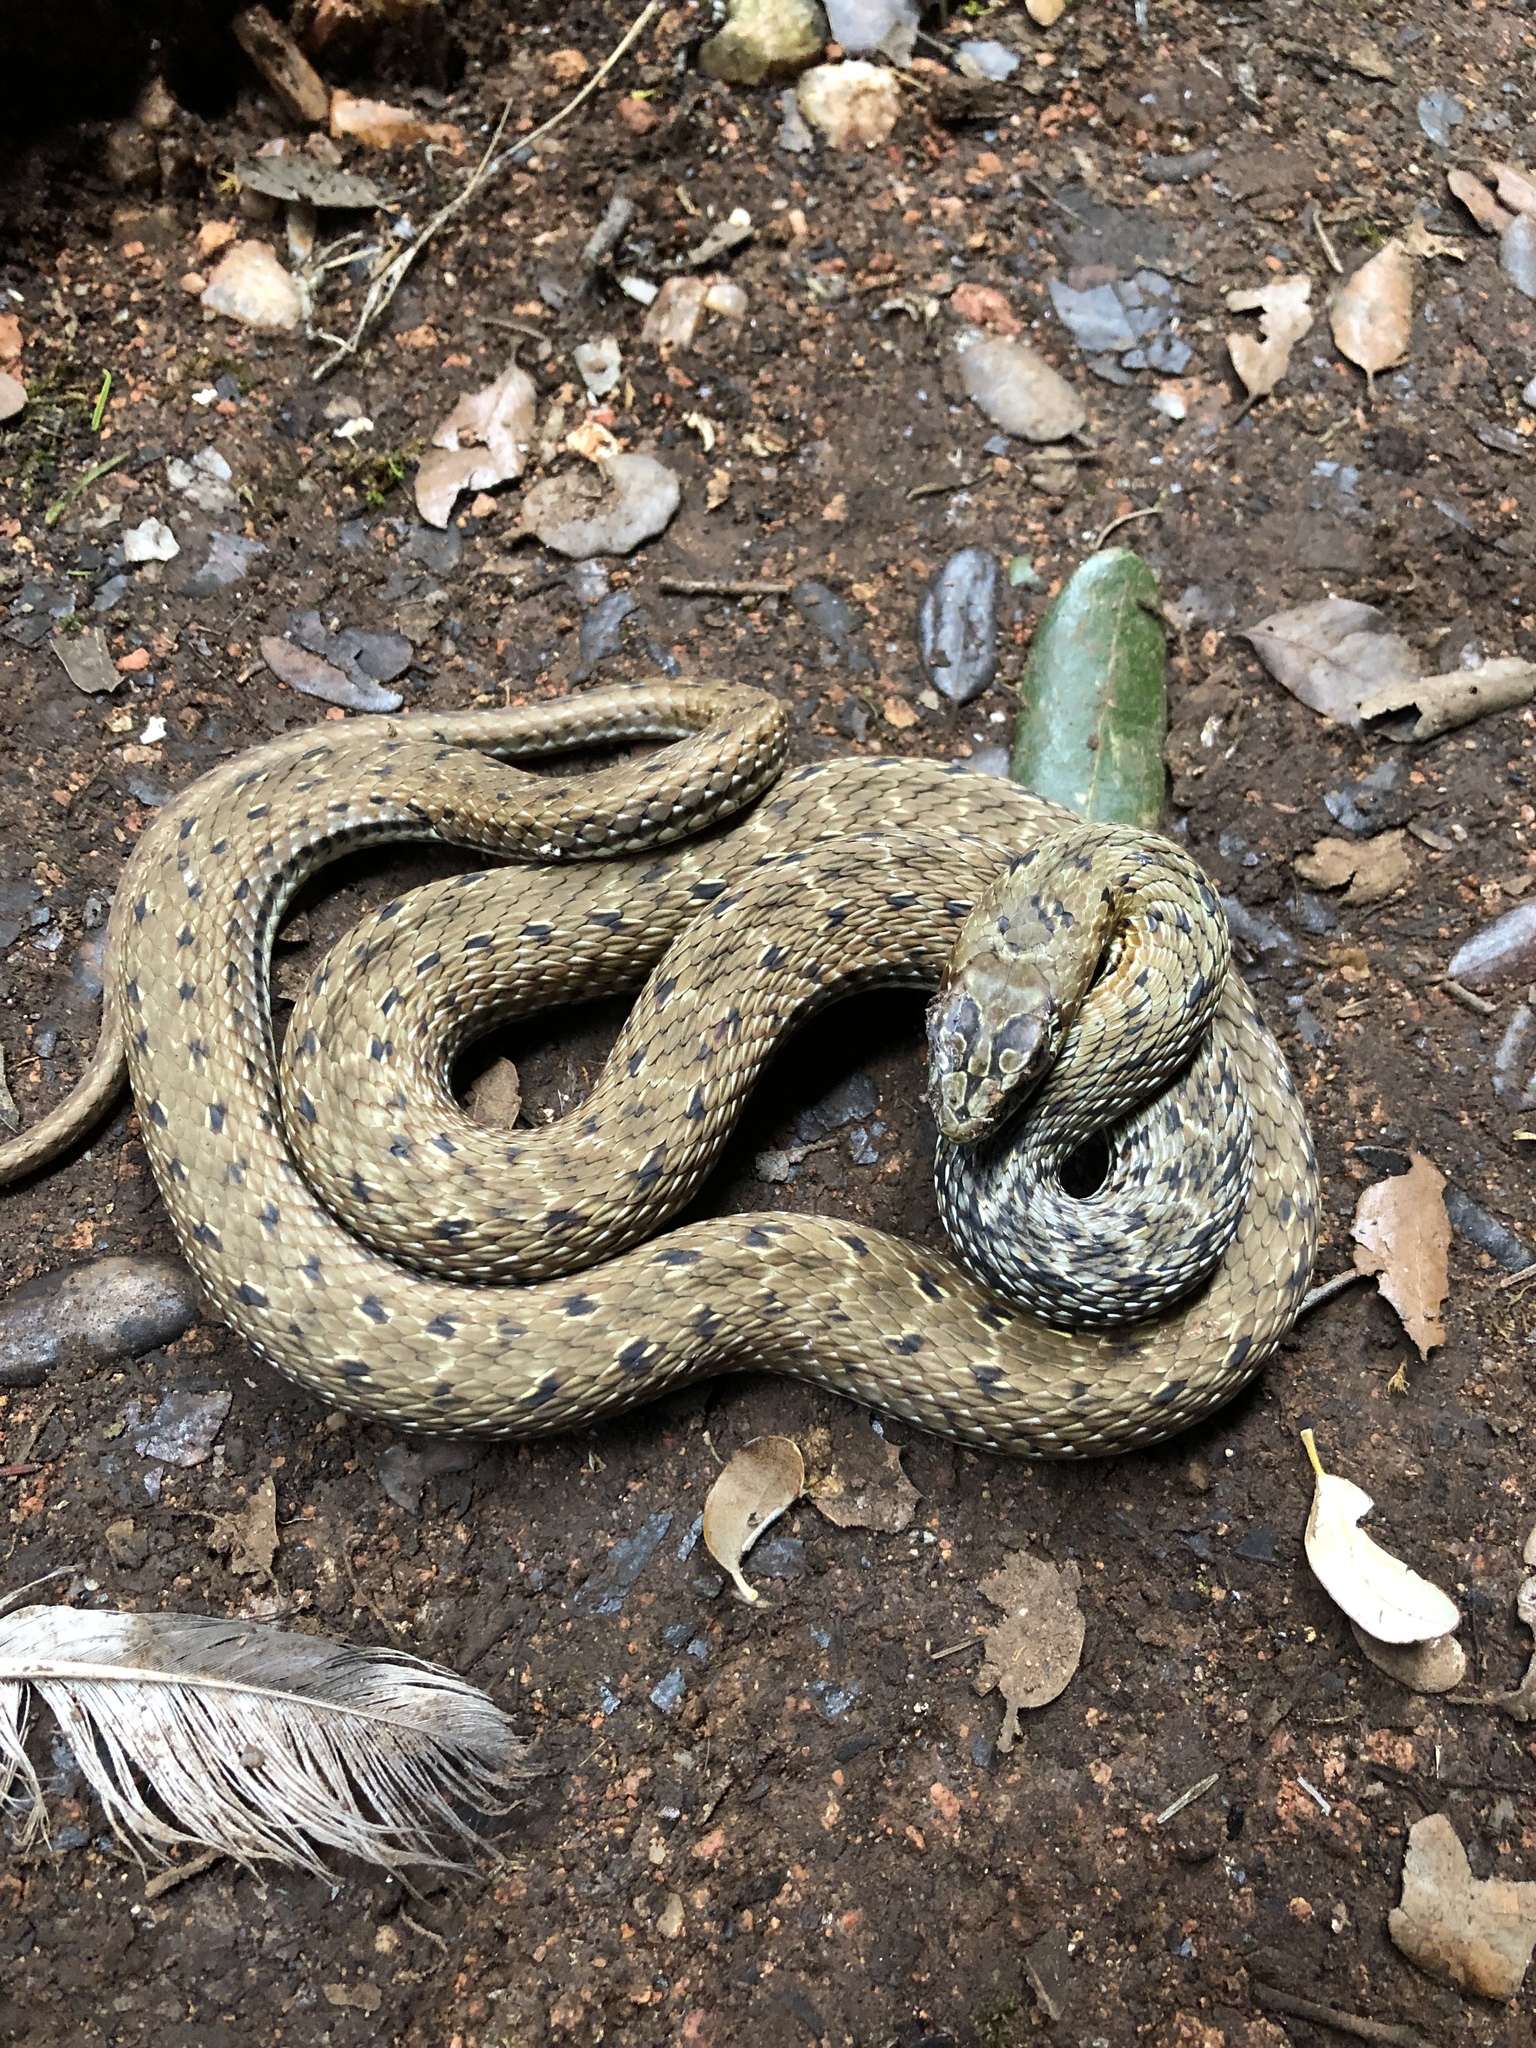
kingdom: Animalia
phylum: Chordata
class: Squamata
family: Psammophiidae
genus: Malpolon
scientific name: Malpolon monspessulanus
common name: Montpellier snake
